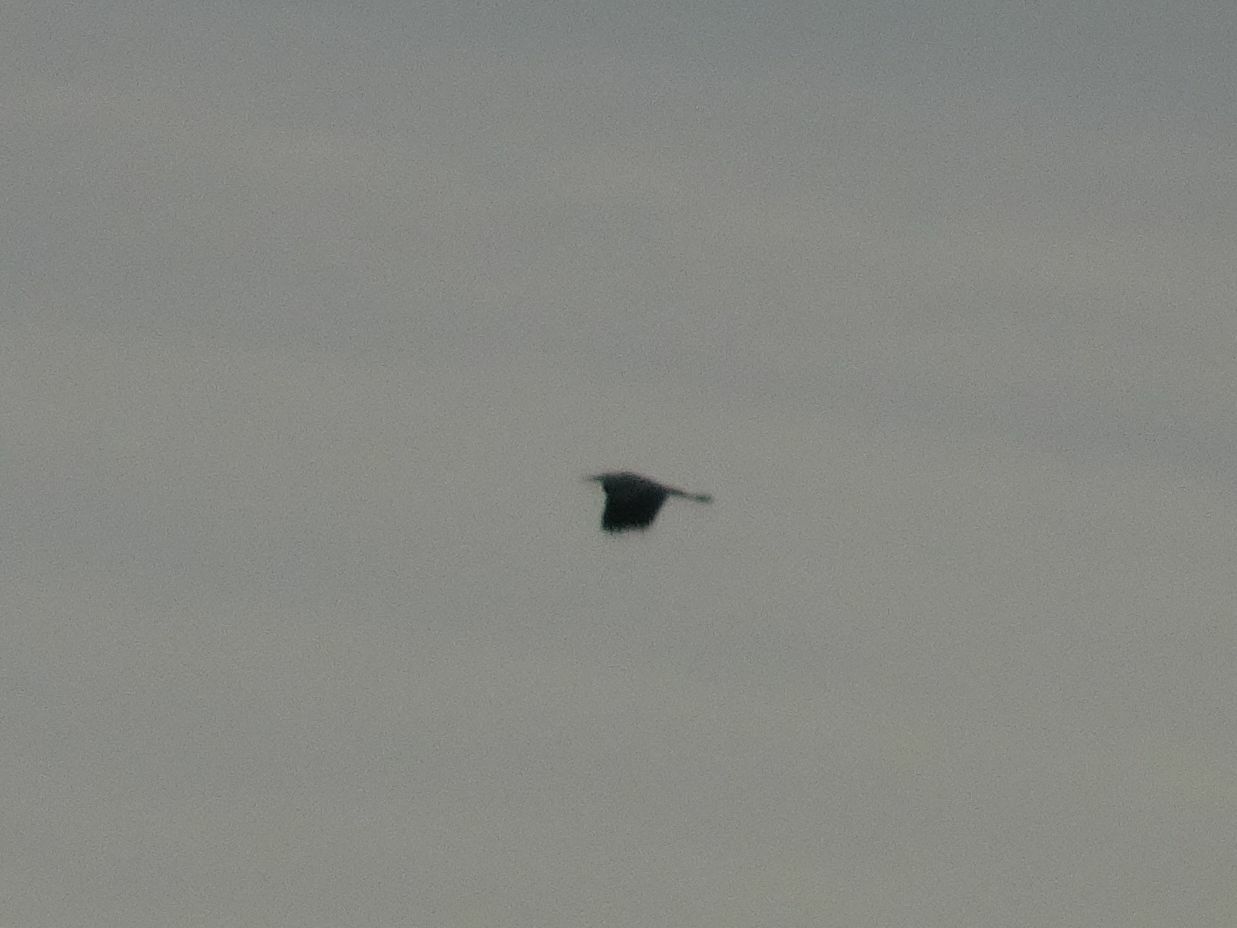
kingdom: Animalia
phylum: Chordata
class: Aves
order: Pelecaniformes
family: Ardeidae
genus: Ardea
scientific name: Ardea cinerea
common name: Grey heron
